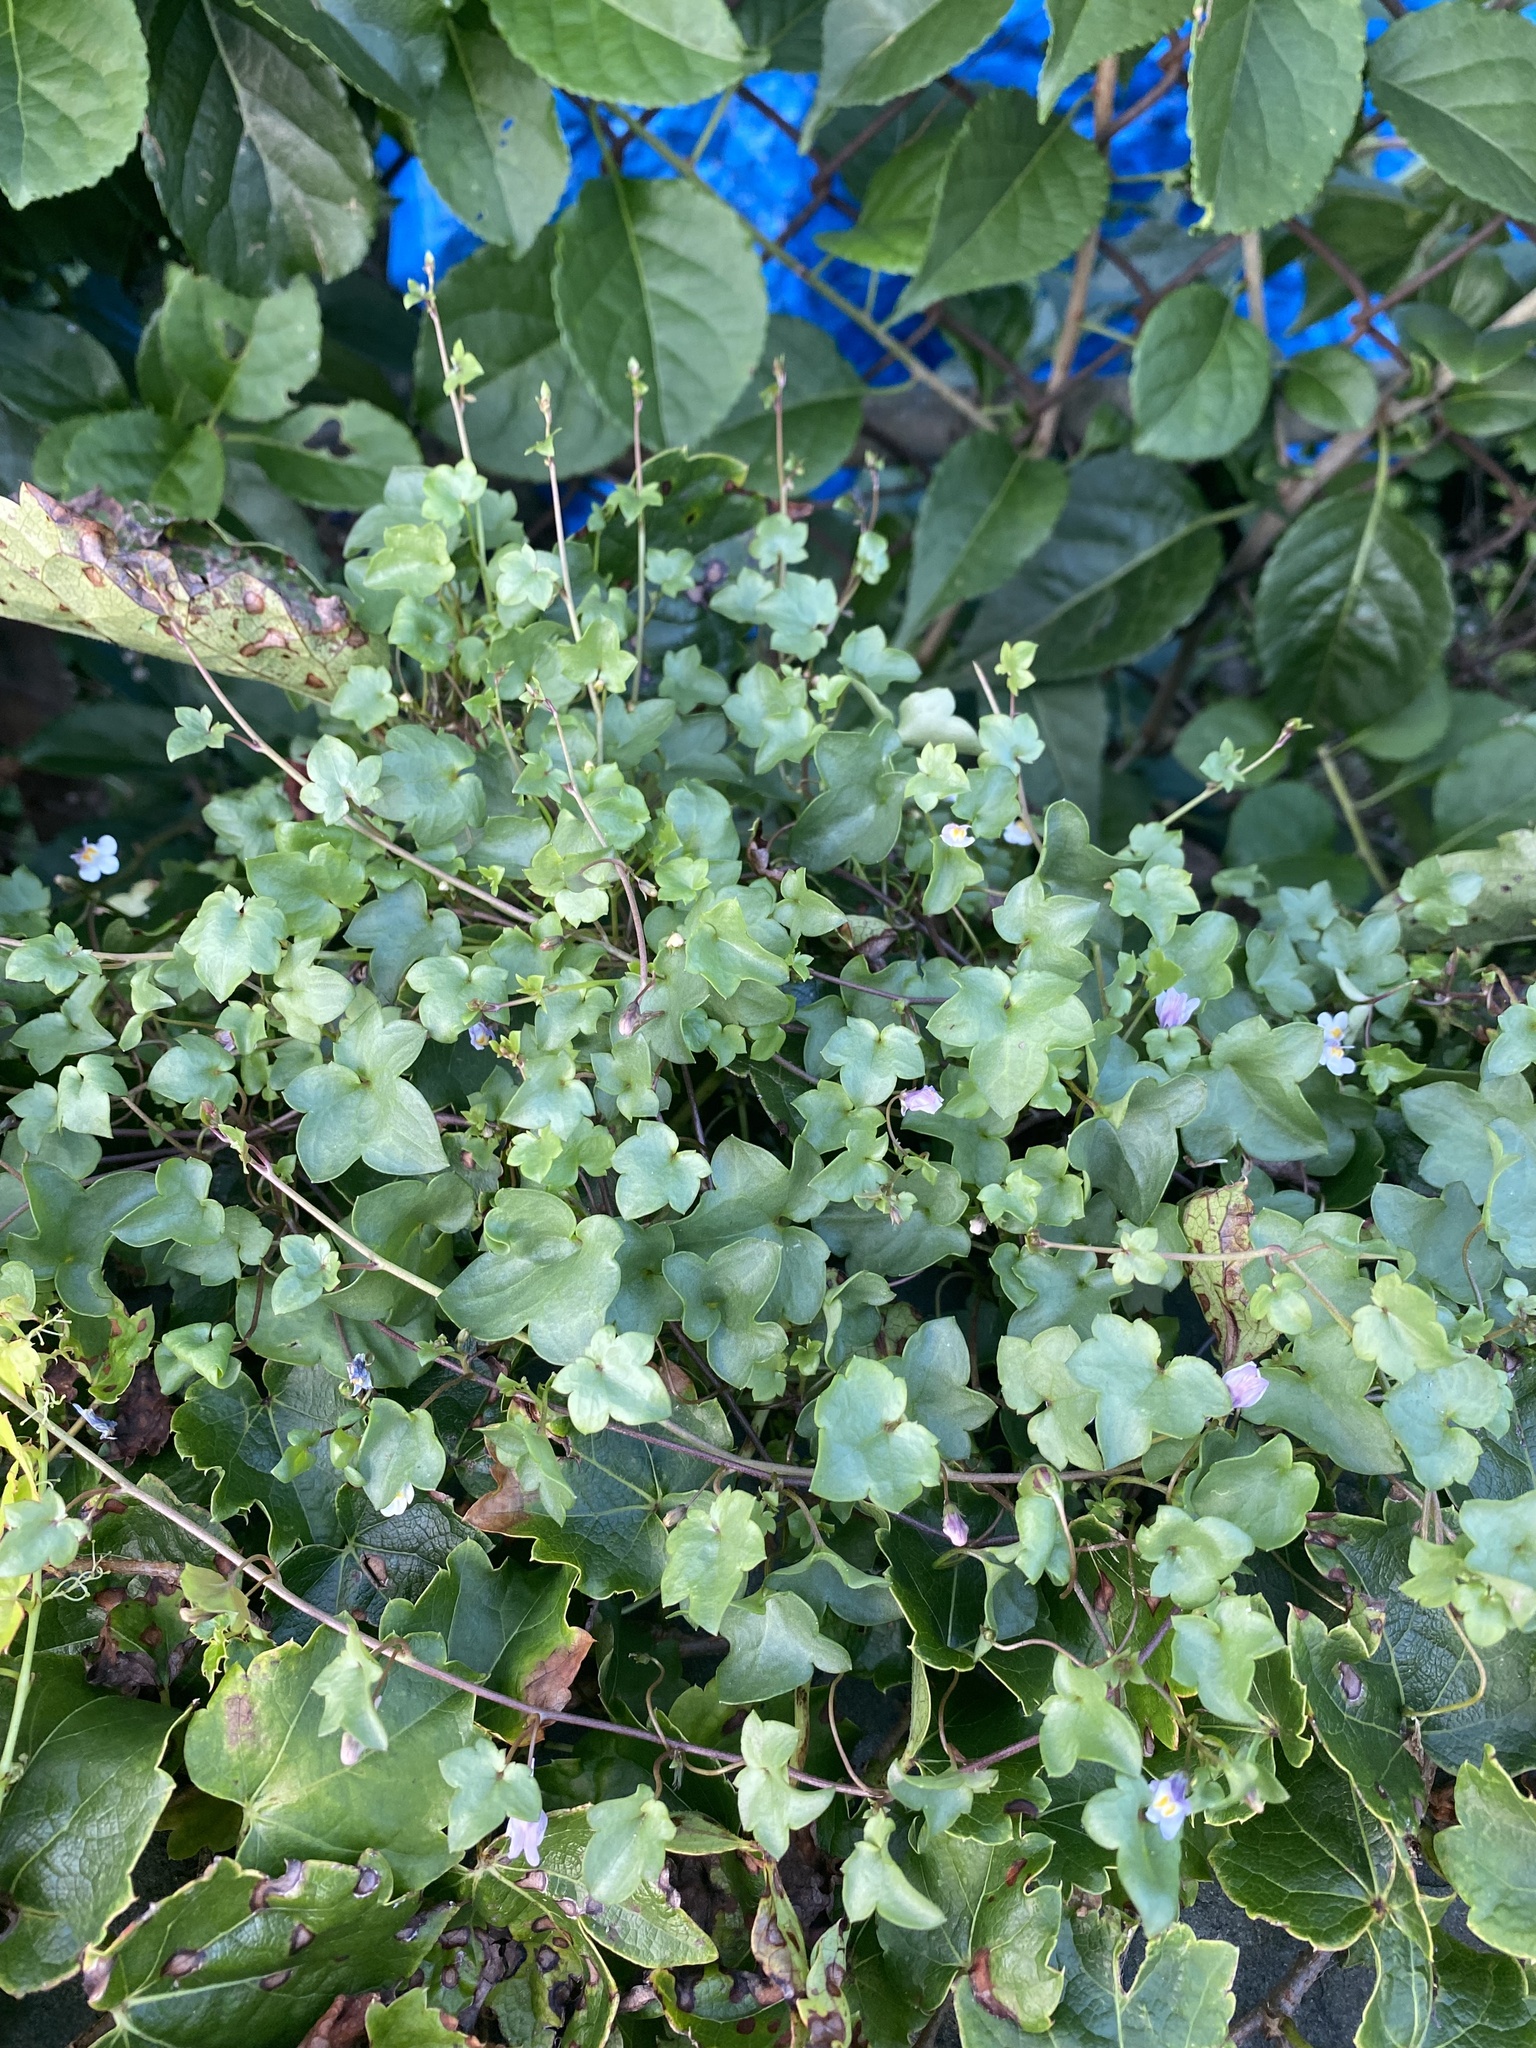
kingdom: Plantae
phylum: Tracheophyta
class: Magnoliopsida
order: Lamiales
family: Plantaginaceae
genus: Cymbalaria
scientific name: Cymbalaria muralis
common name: Ivy-leaved toadflax
